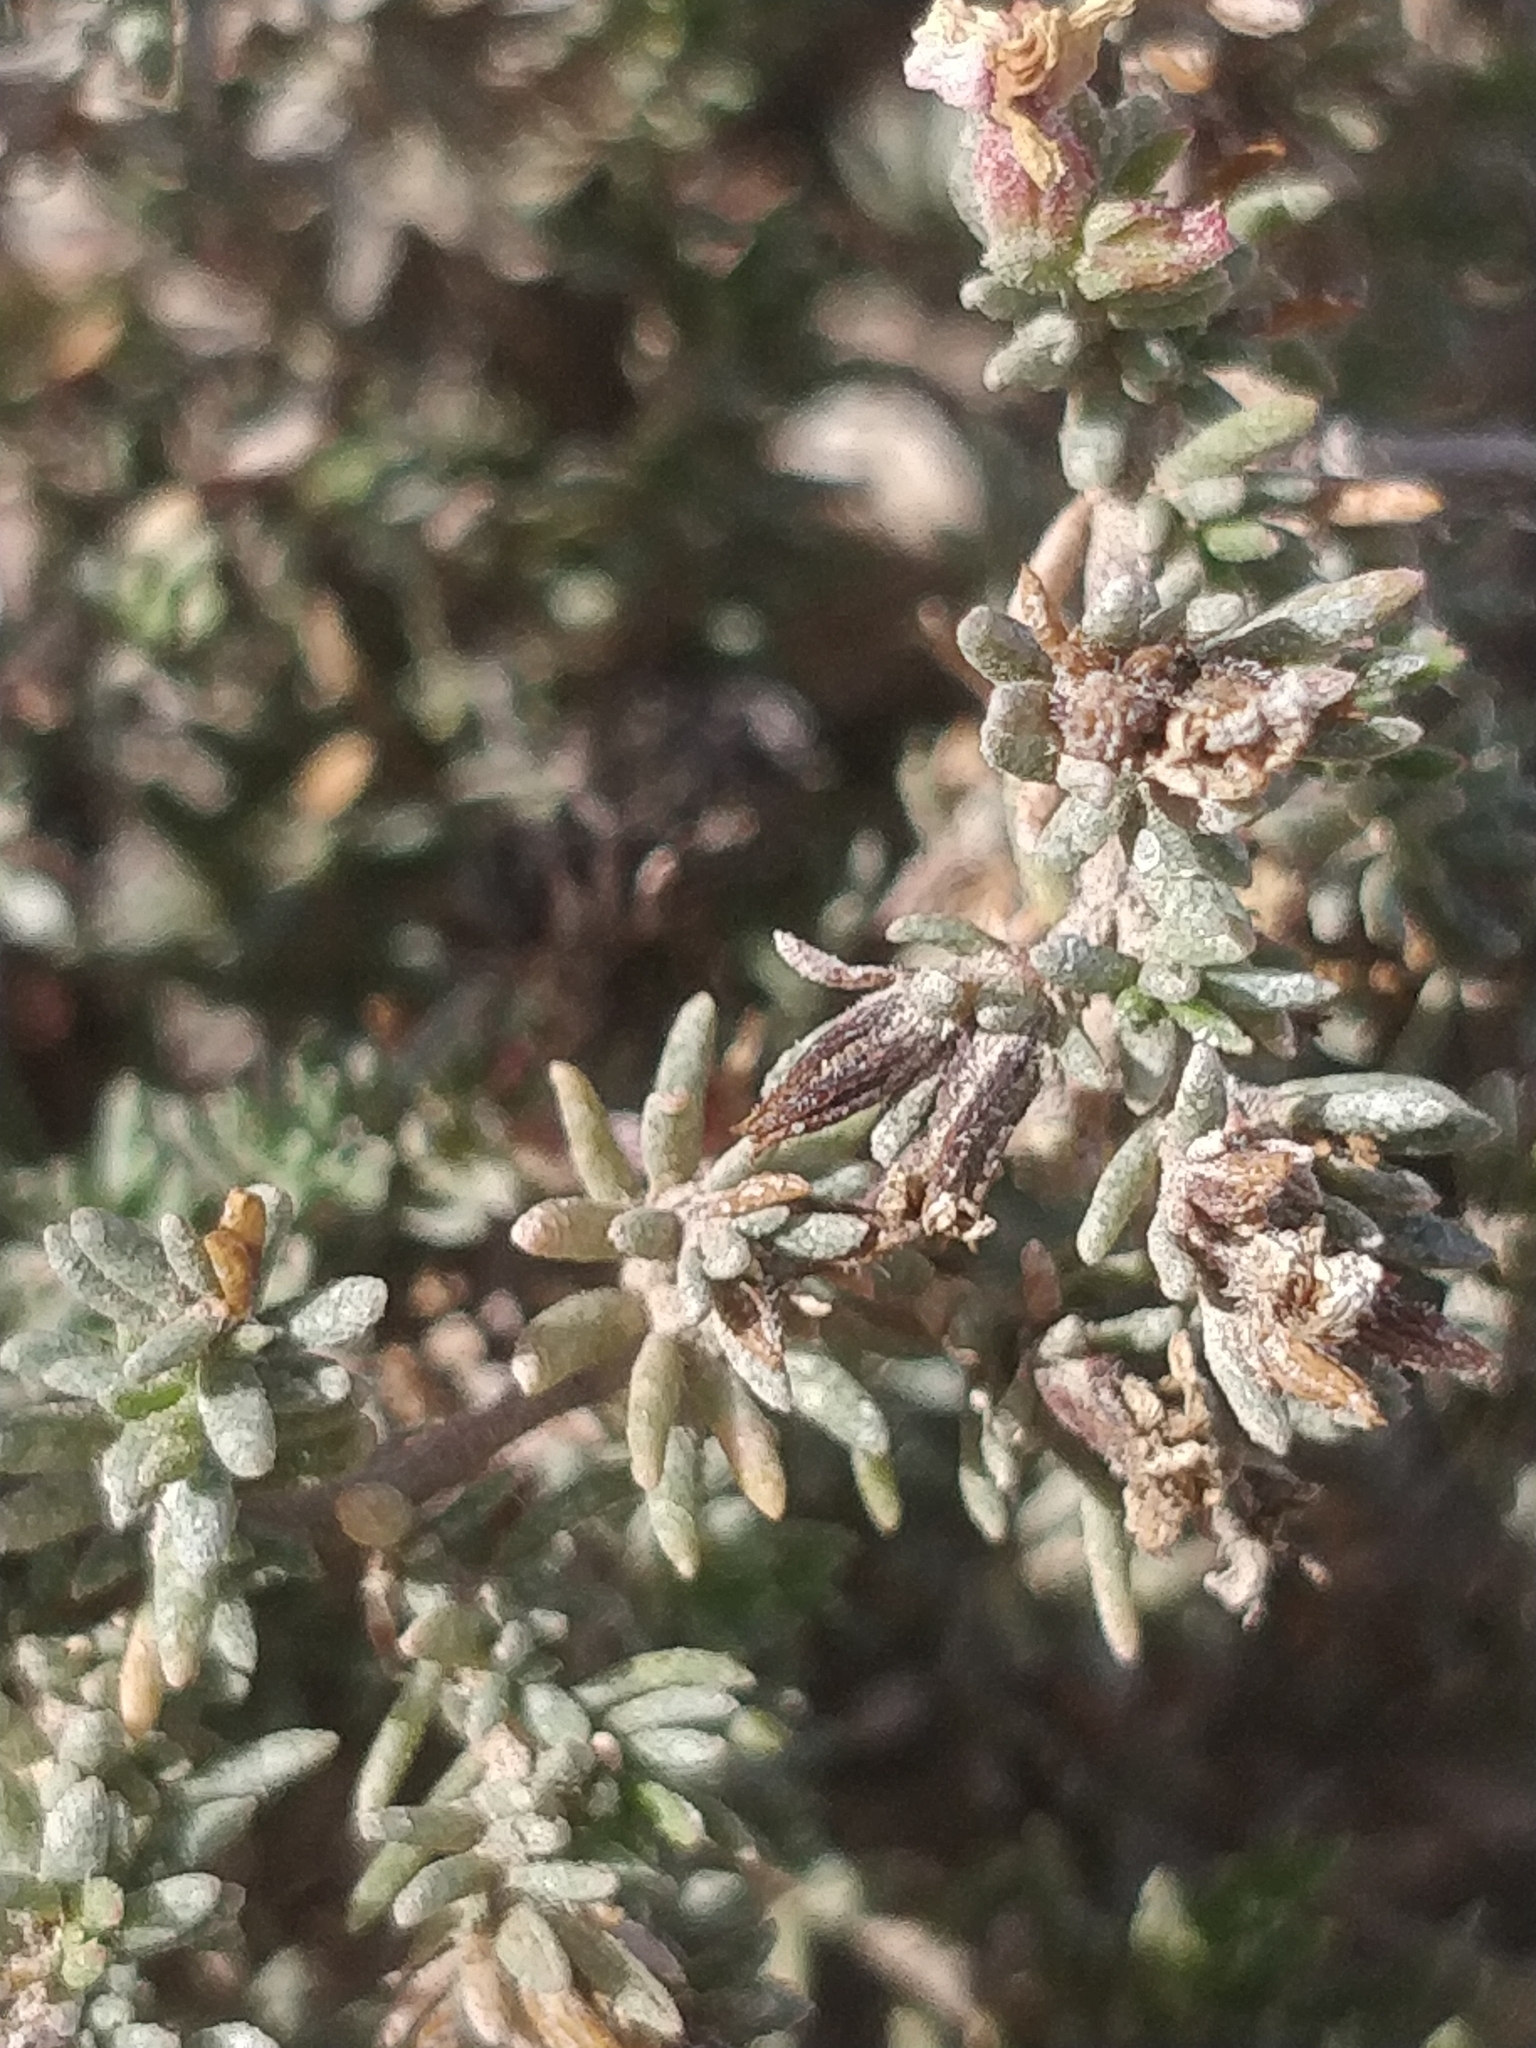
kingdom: Plantae
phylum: Tracheophyta
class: Magnoliopsida
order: Caryophyllales
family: Frankeniaceae
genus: Frankenia
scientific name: Frankenia laevis
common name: Sea-heath
